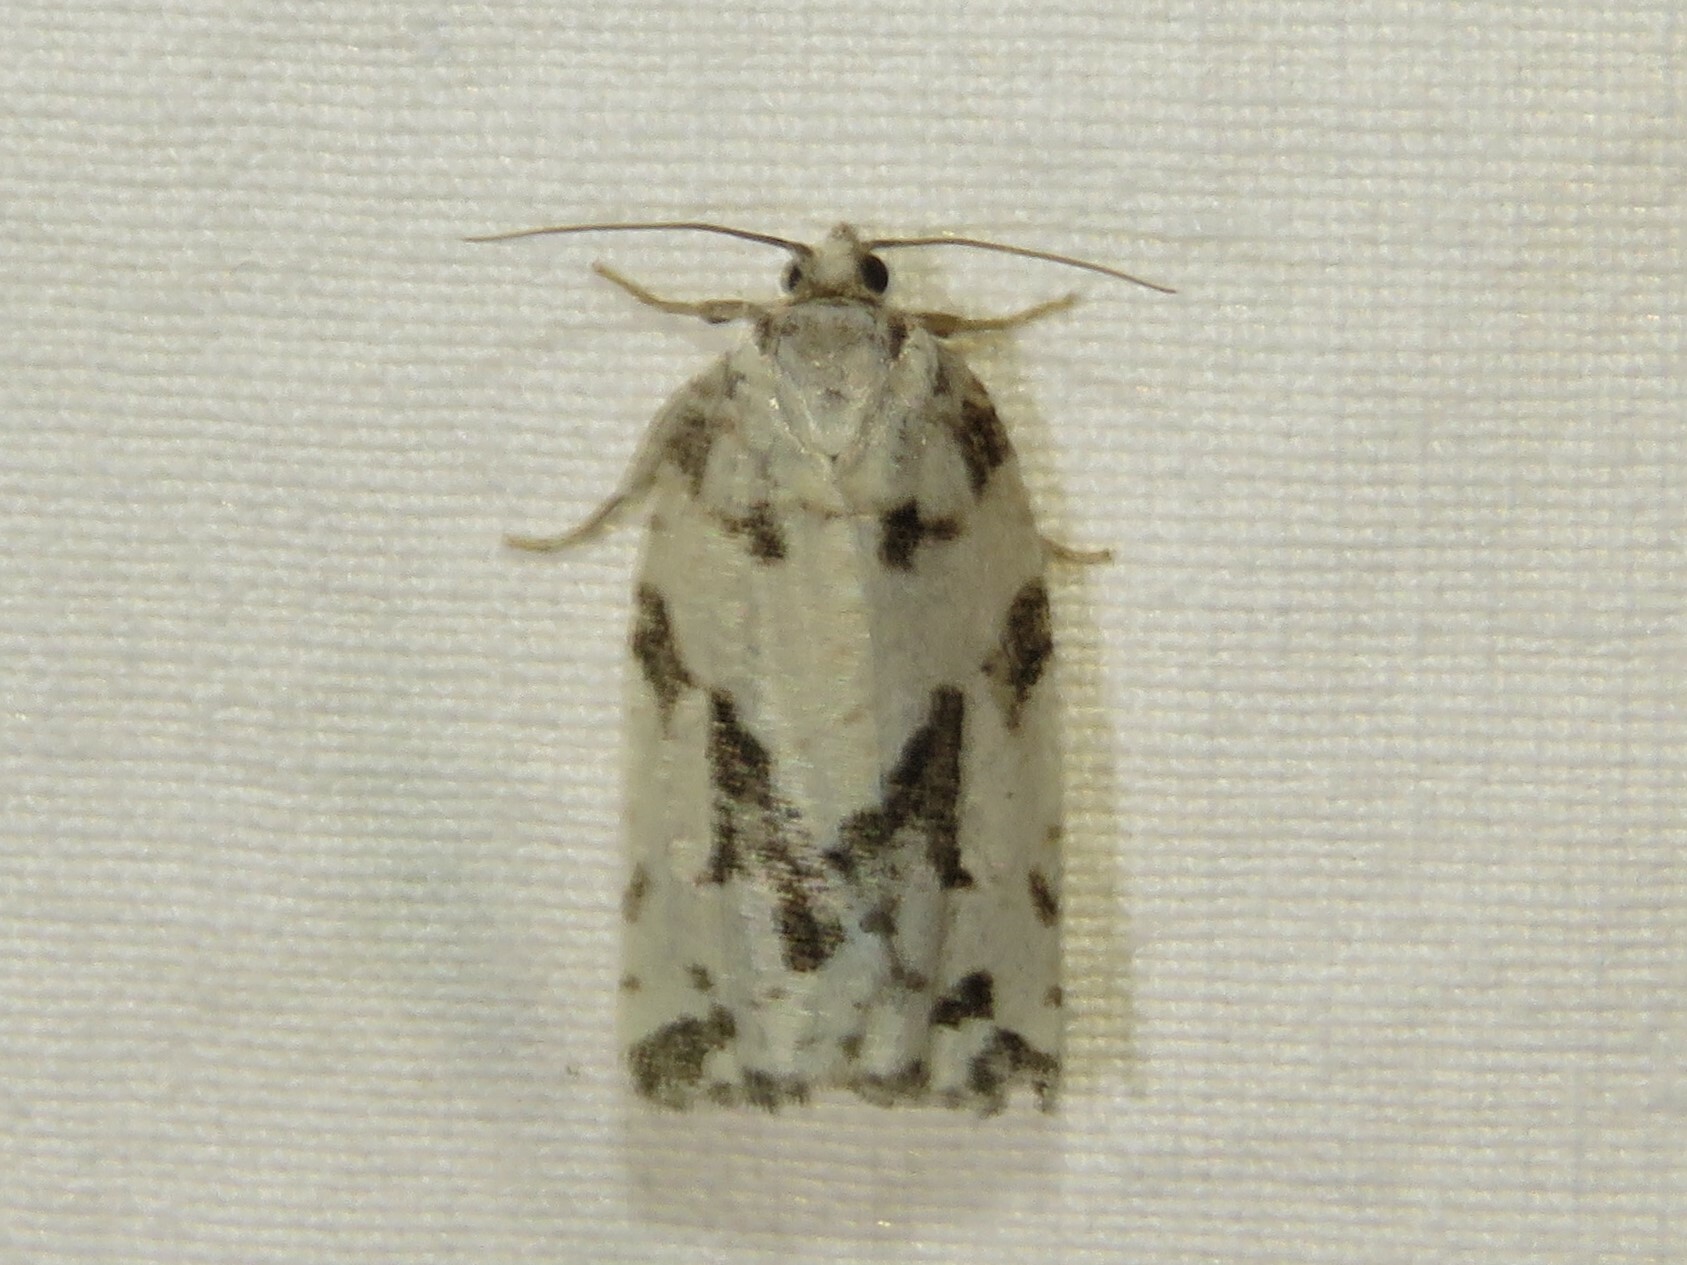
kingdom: Animalia
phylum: Arthropoda
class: Insecta
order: Lepidoptera
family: Tortricidae
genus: Archips
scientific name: Archips dissitana
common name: Boldly-marked archips moth
